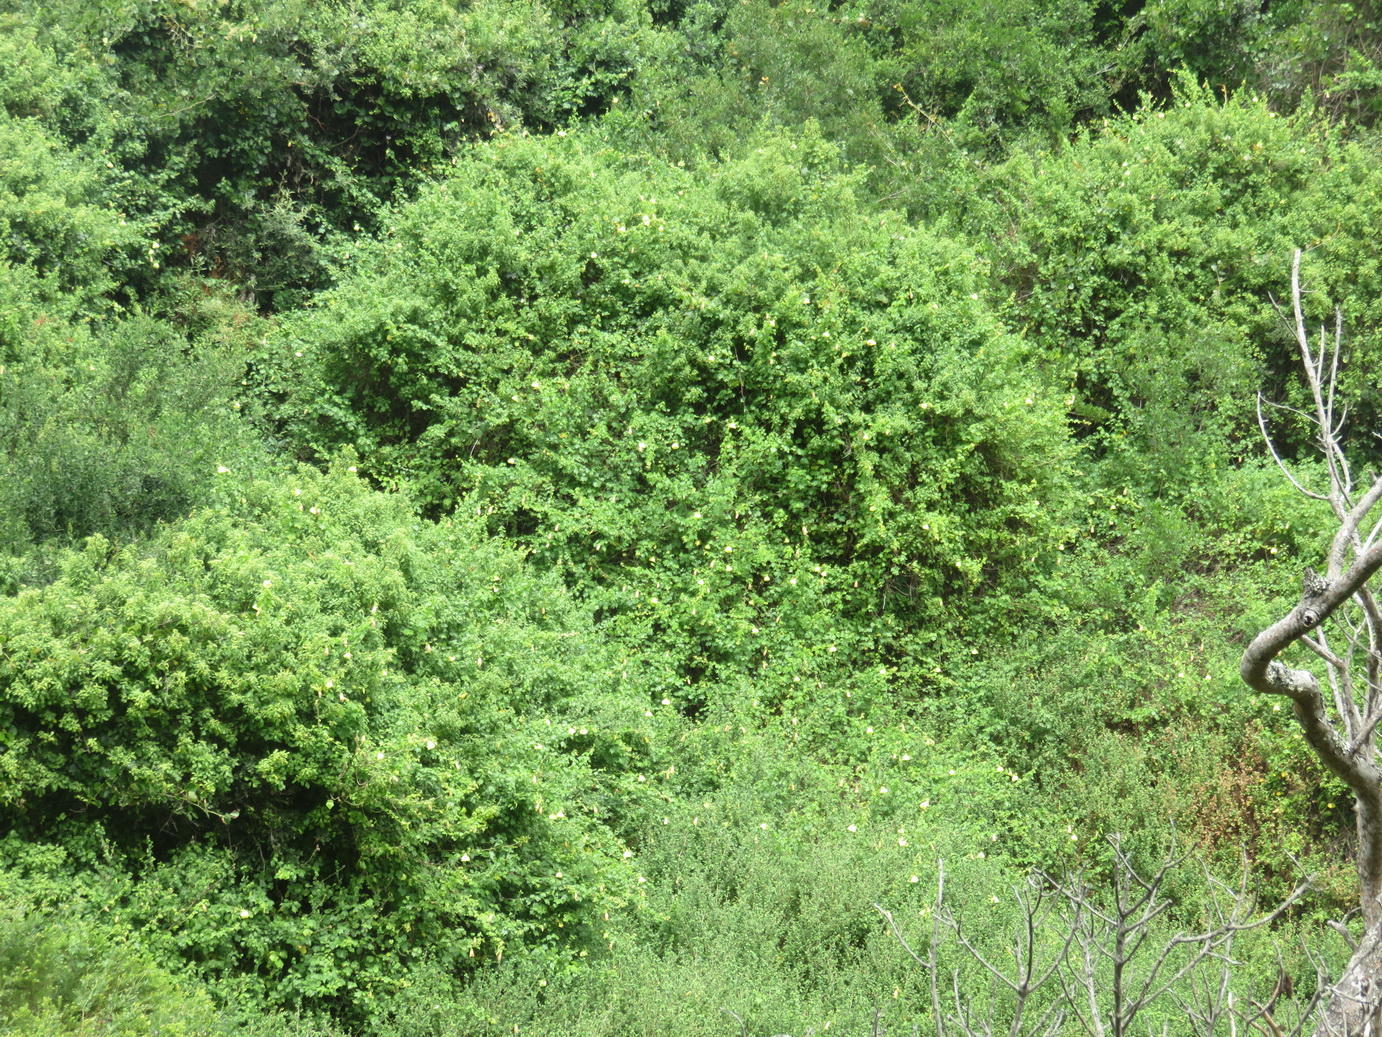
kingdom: Plantae
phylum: Tracheophyta
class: Magnoliopsida
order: Malvales
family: Malvaceae
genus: Hibiscus
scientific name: Hibiscus ludwigii
